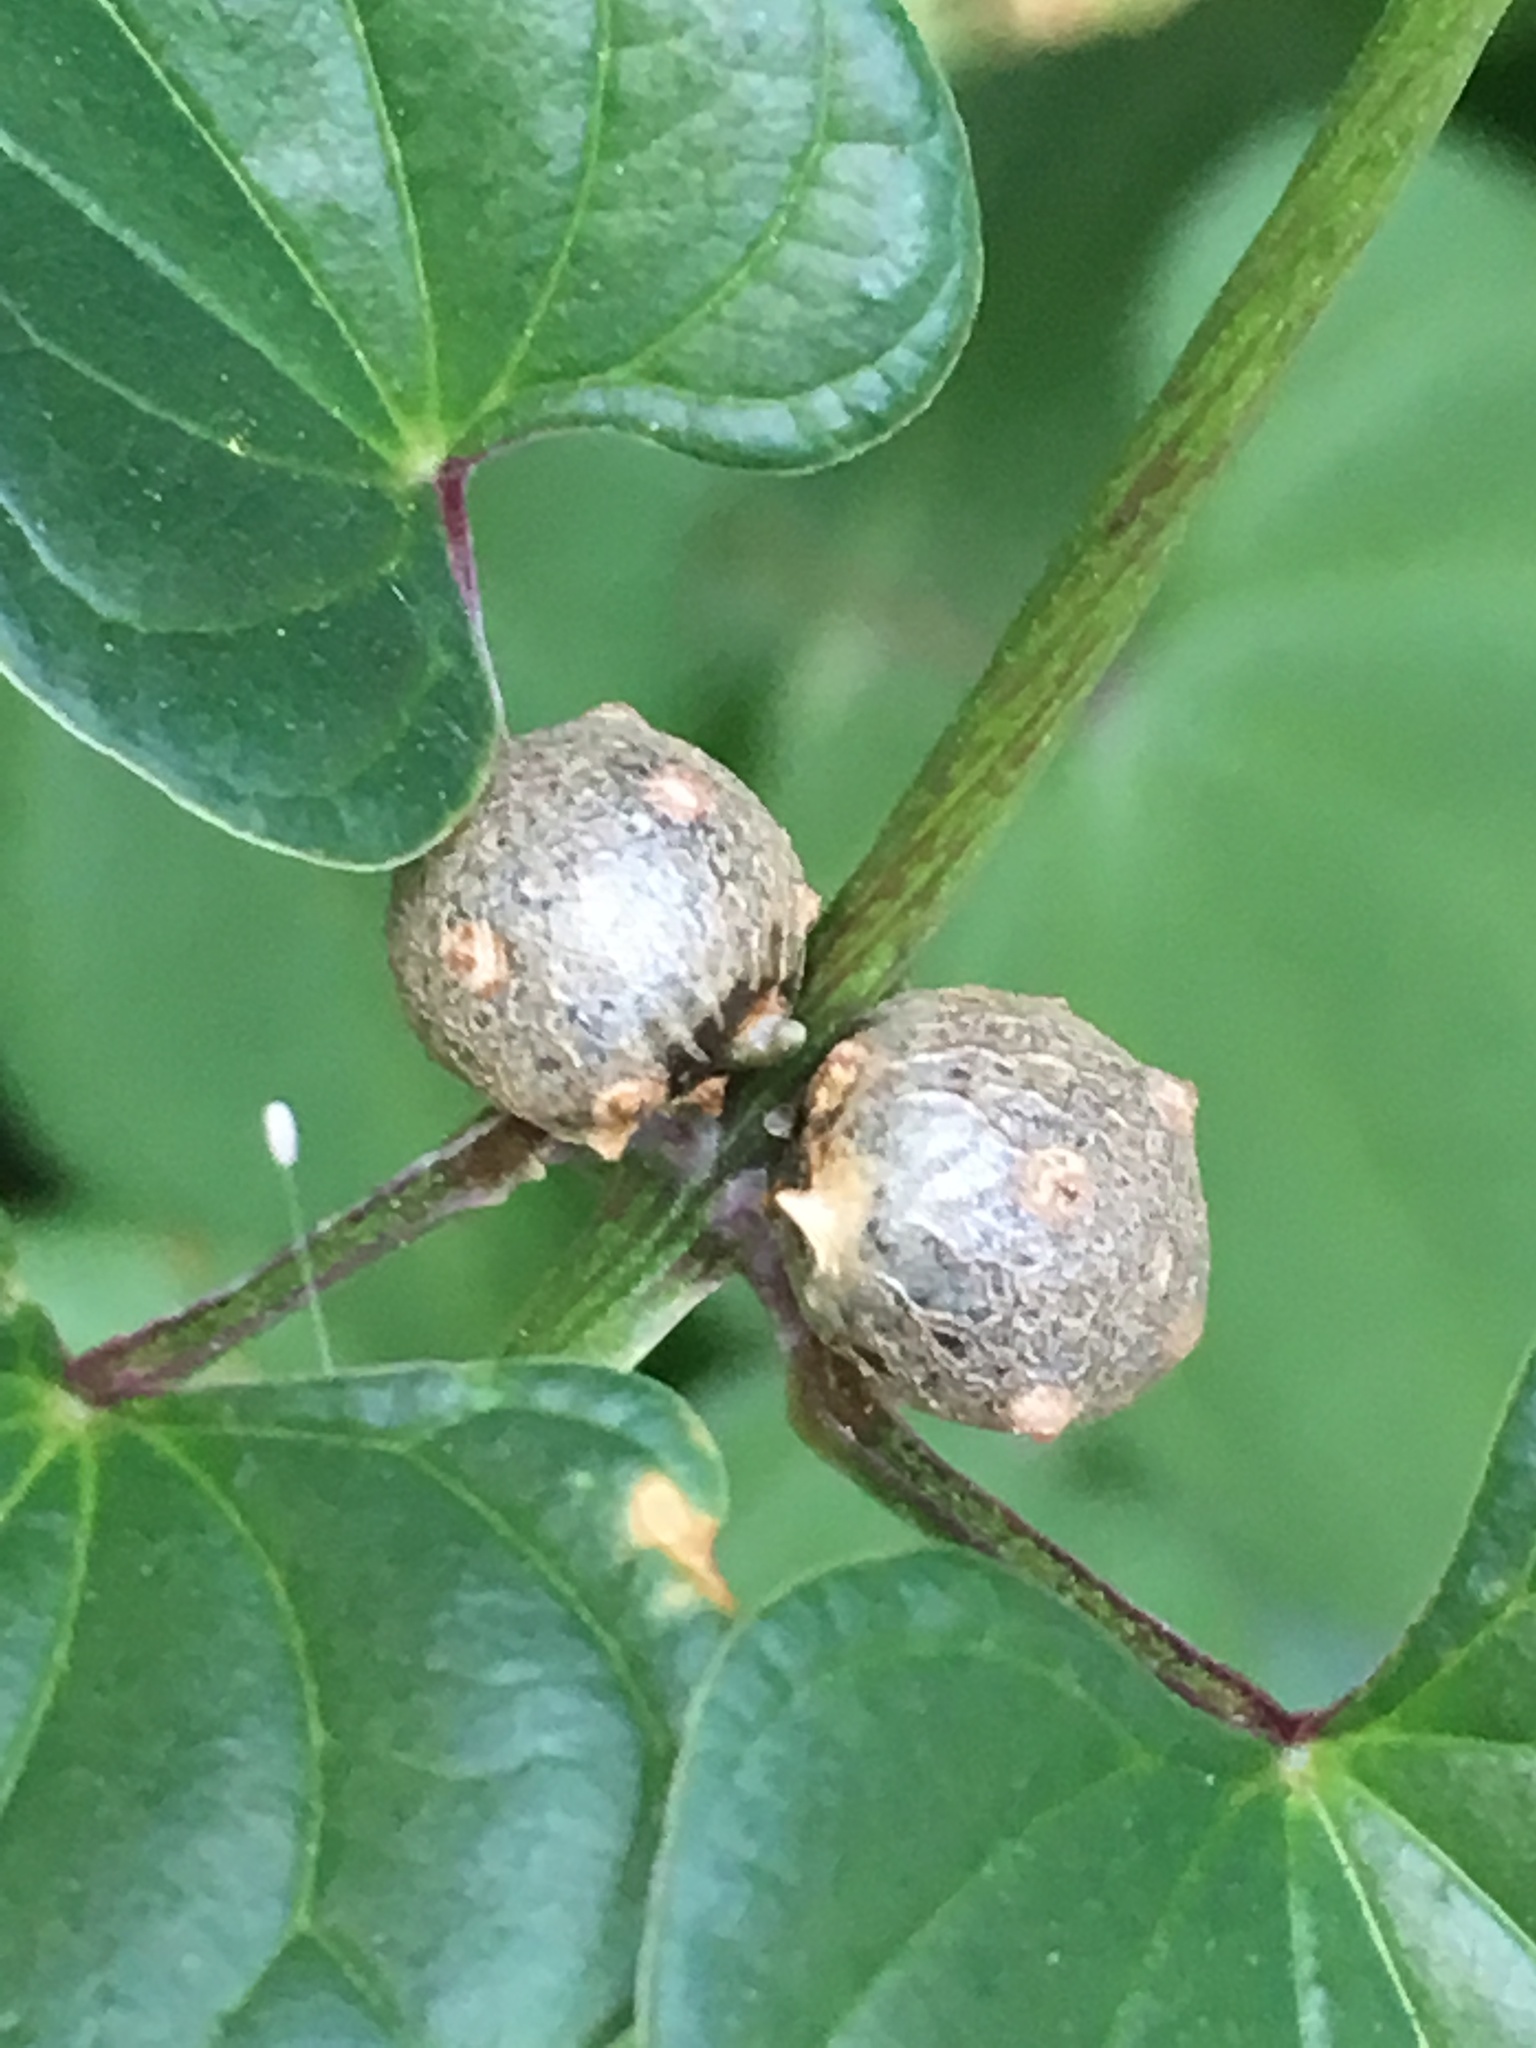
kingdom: Plantae
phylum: Tracheophyta
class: Liliopsida
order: Dioscoreales
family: Dioscoreaceae
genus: Dioscorea
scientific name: Dioscorea polystachya
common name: Chinese yam
